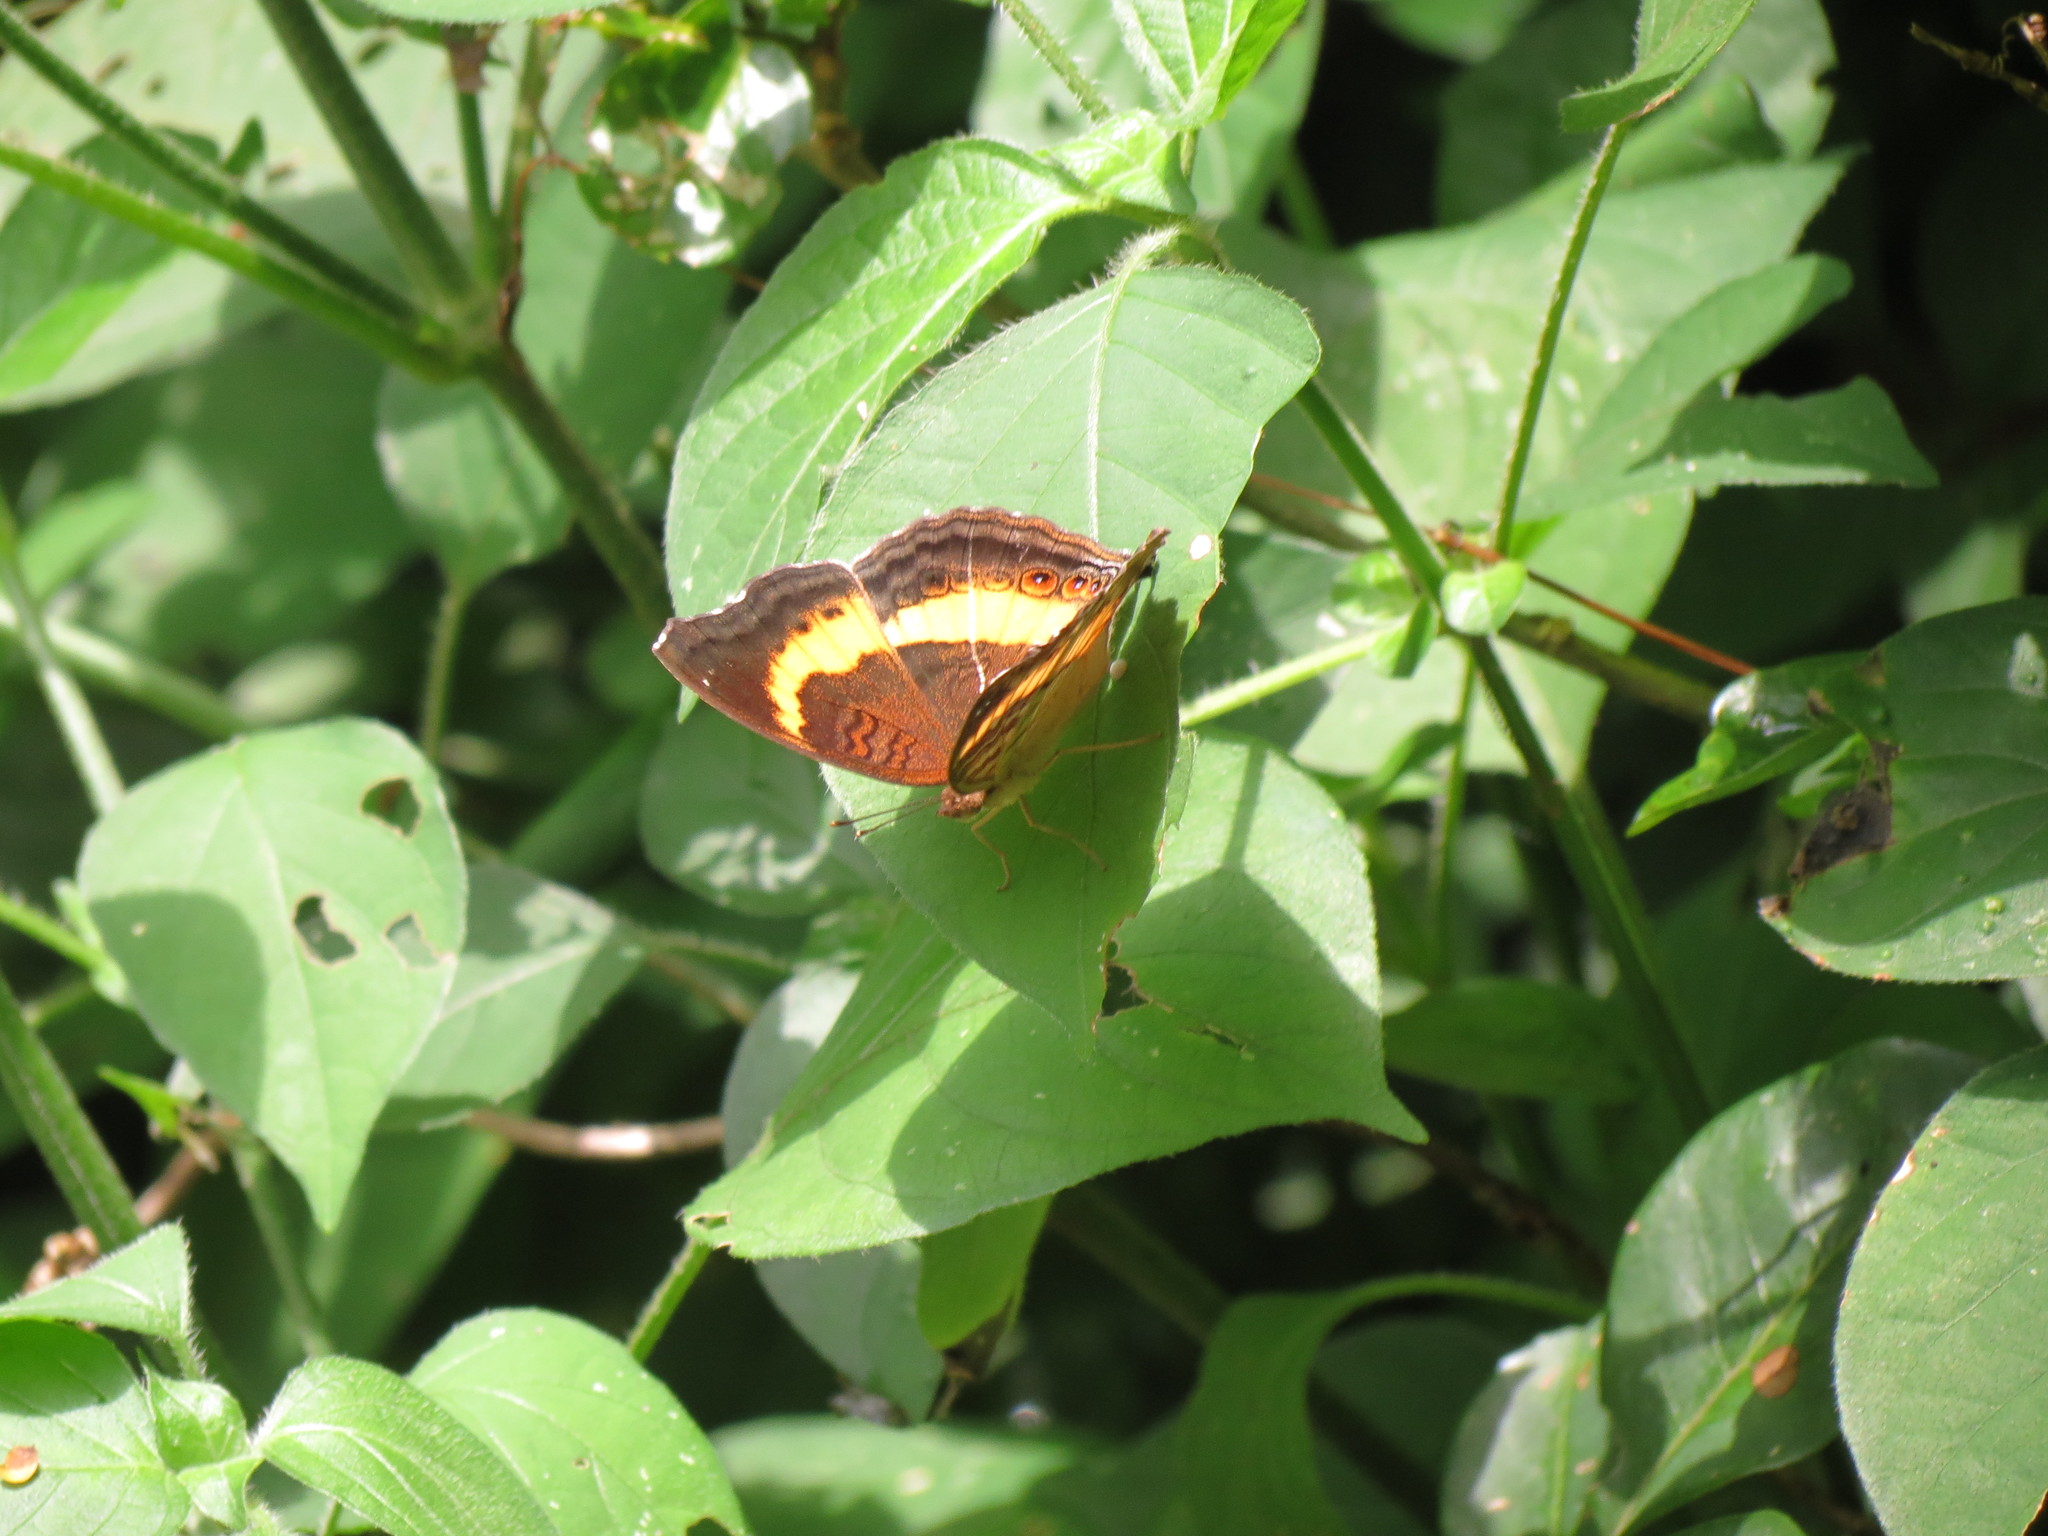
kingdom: Animalia
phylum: Arthropoda
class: Insecta
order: Lepidoptera
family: Nymphalidae
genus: Junonia
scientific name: Junonia terea
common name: Soldier pansy
